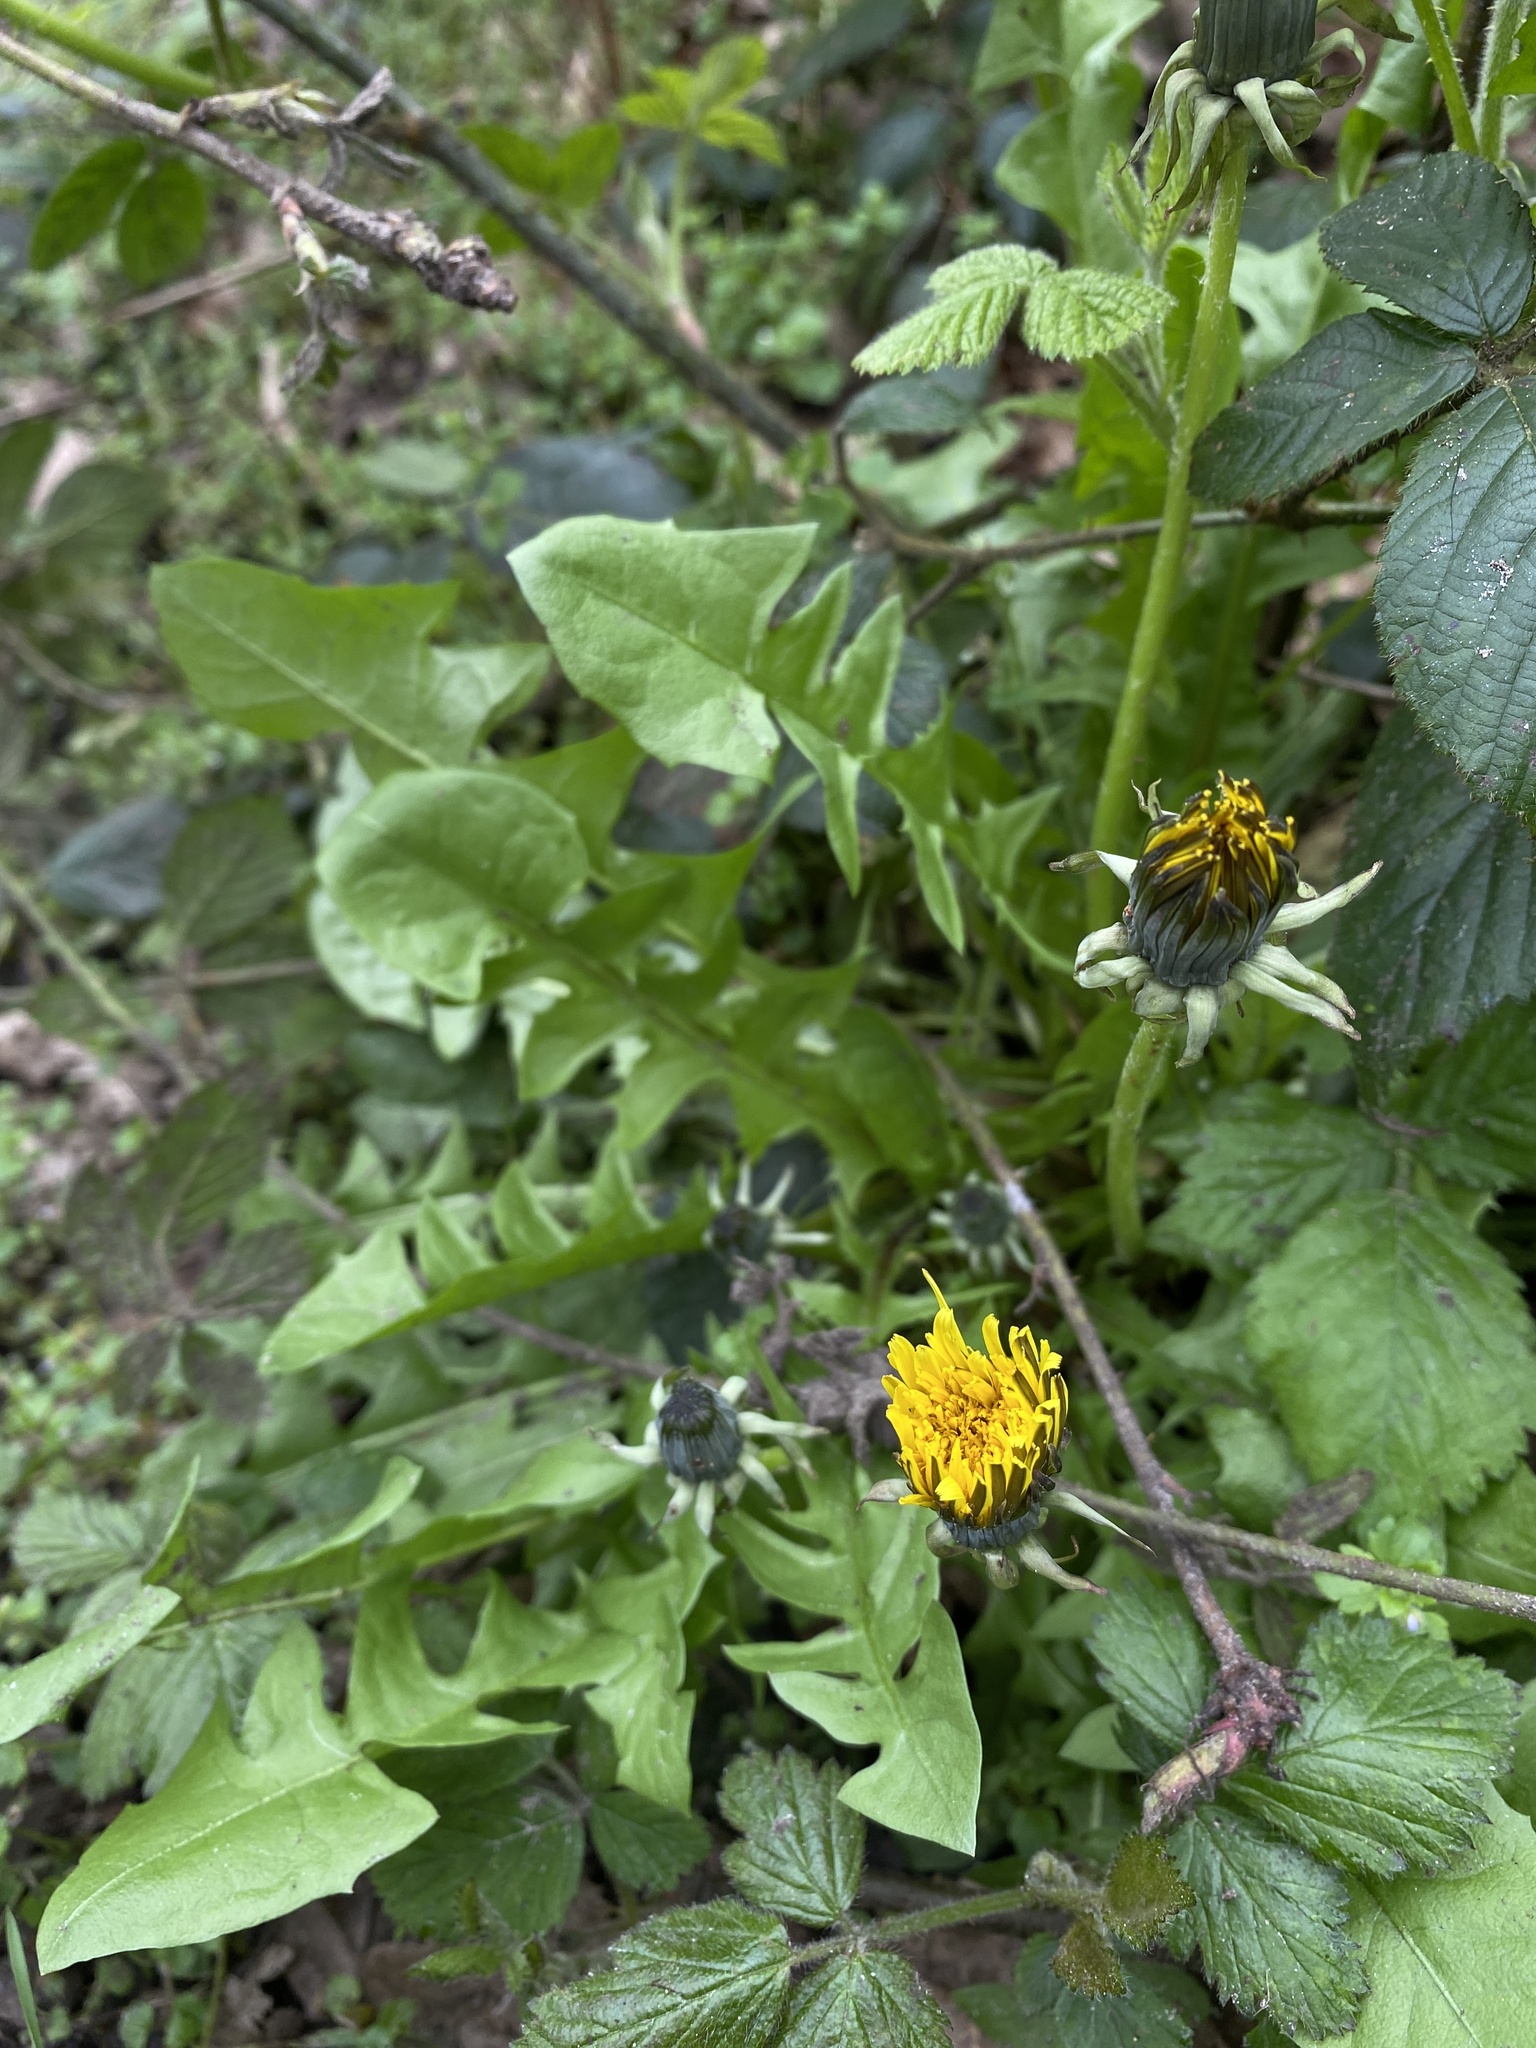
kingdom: Plantae
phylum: Tracheophyta
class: Magnoliopsida
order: Asterales
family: Asteraceae
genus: Taraxacum
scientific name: Taraxacum officinale
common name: Common dandelion
